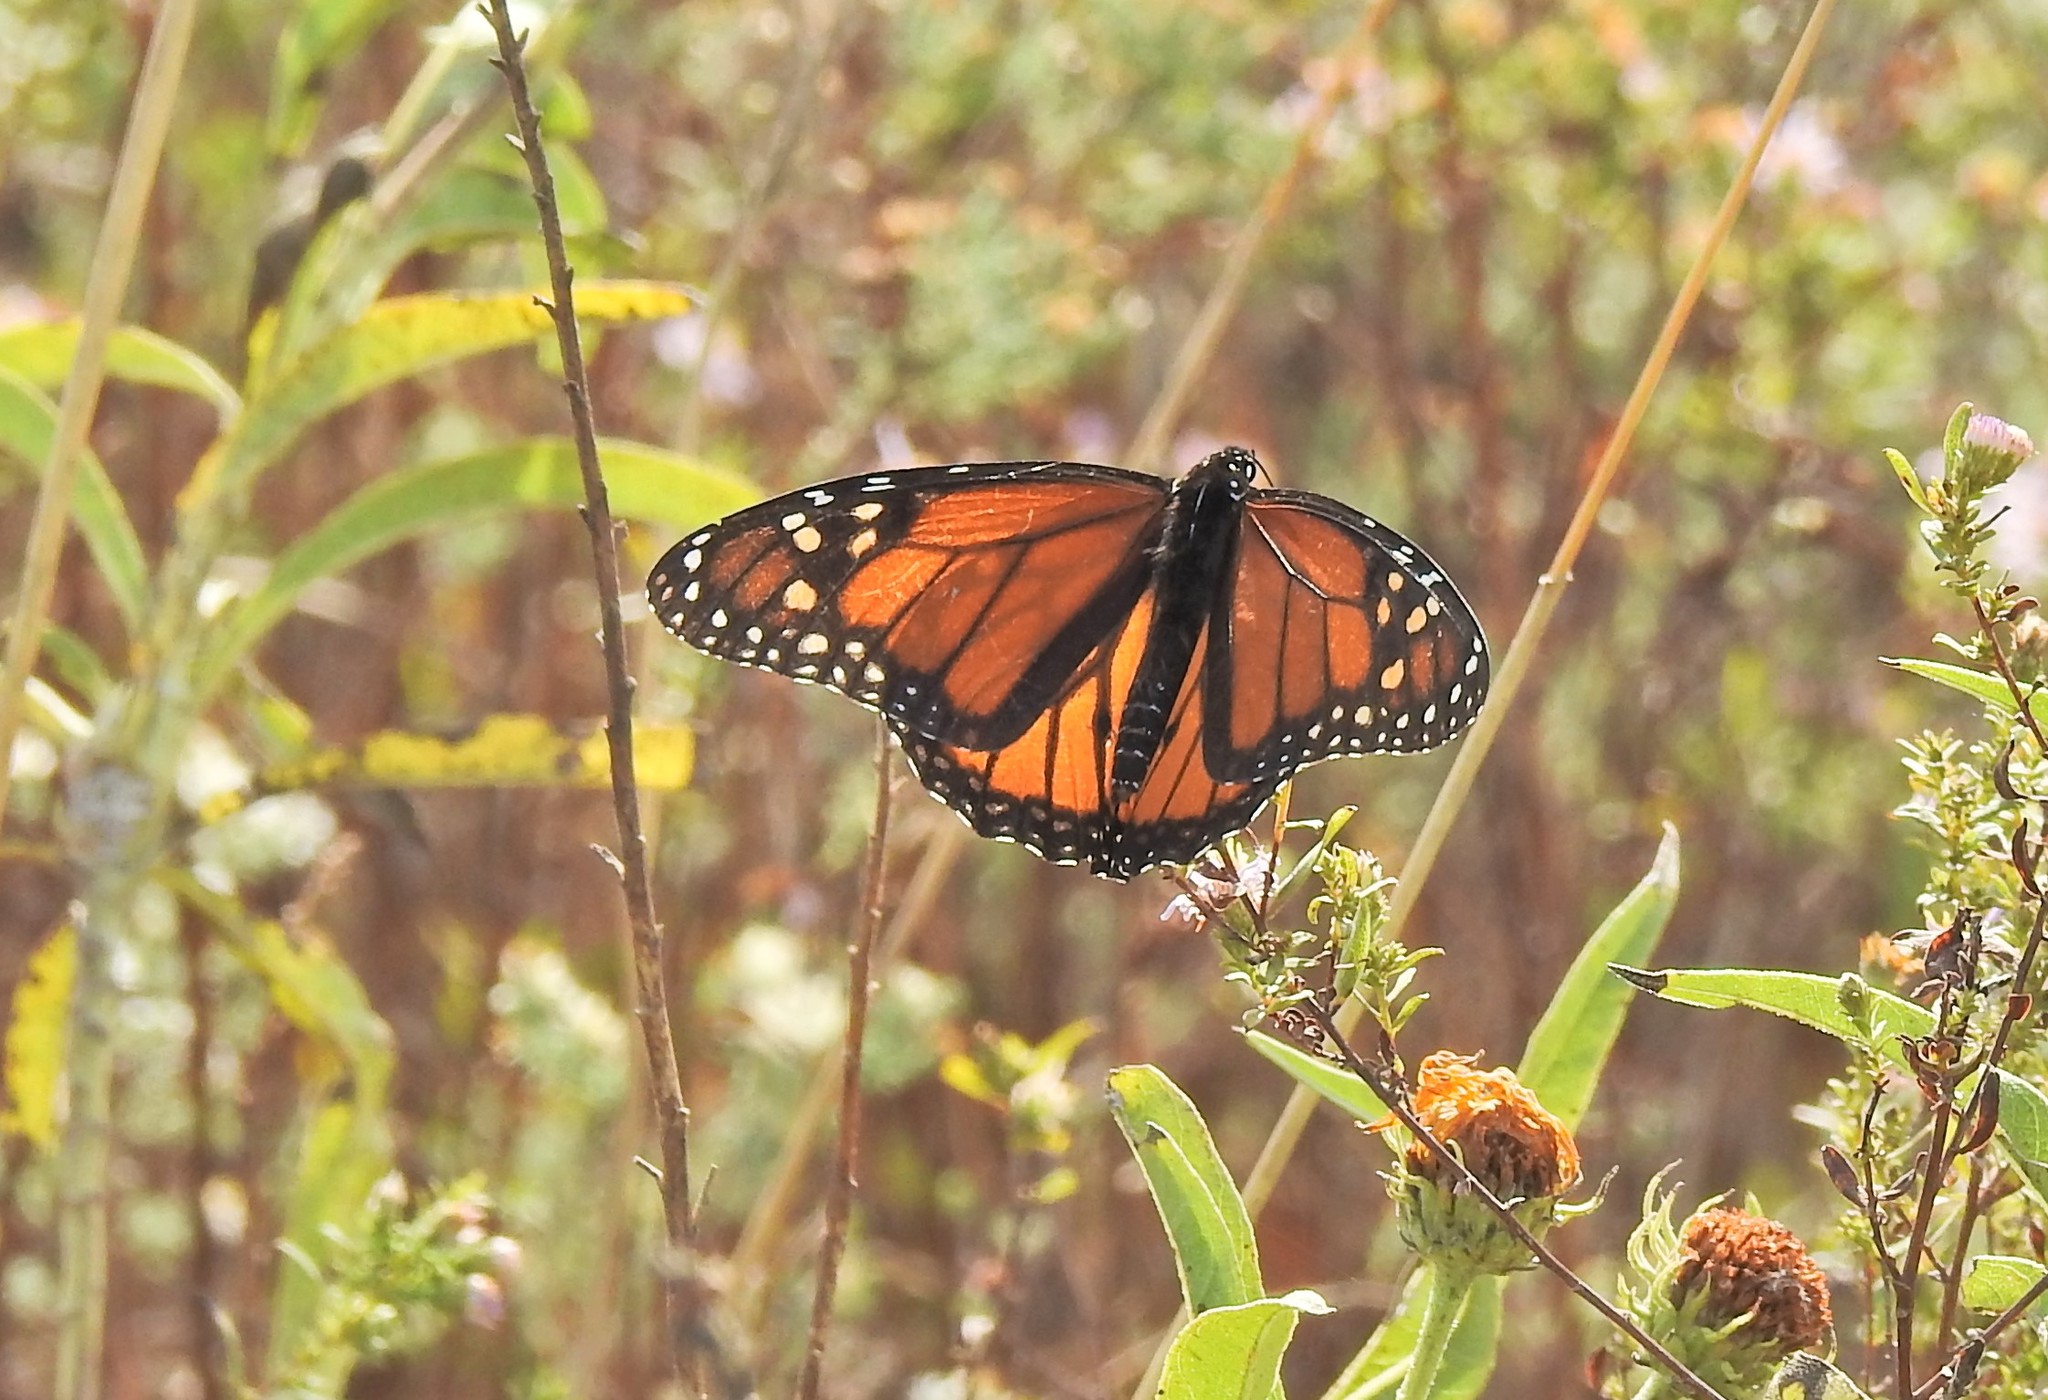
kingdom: Animalia
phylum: Arthropoda
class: Insecta
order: Lepidoptera
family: Nymphalidae
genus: Danaus
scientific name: Danaus plexippus
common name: Monarch
